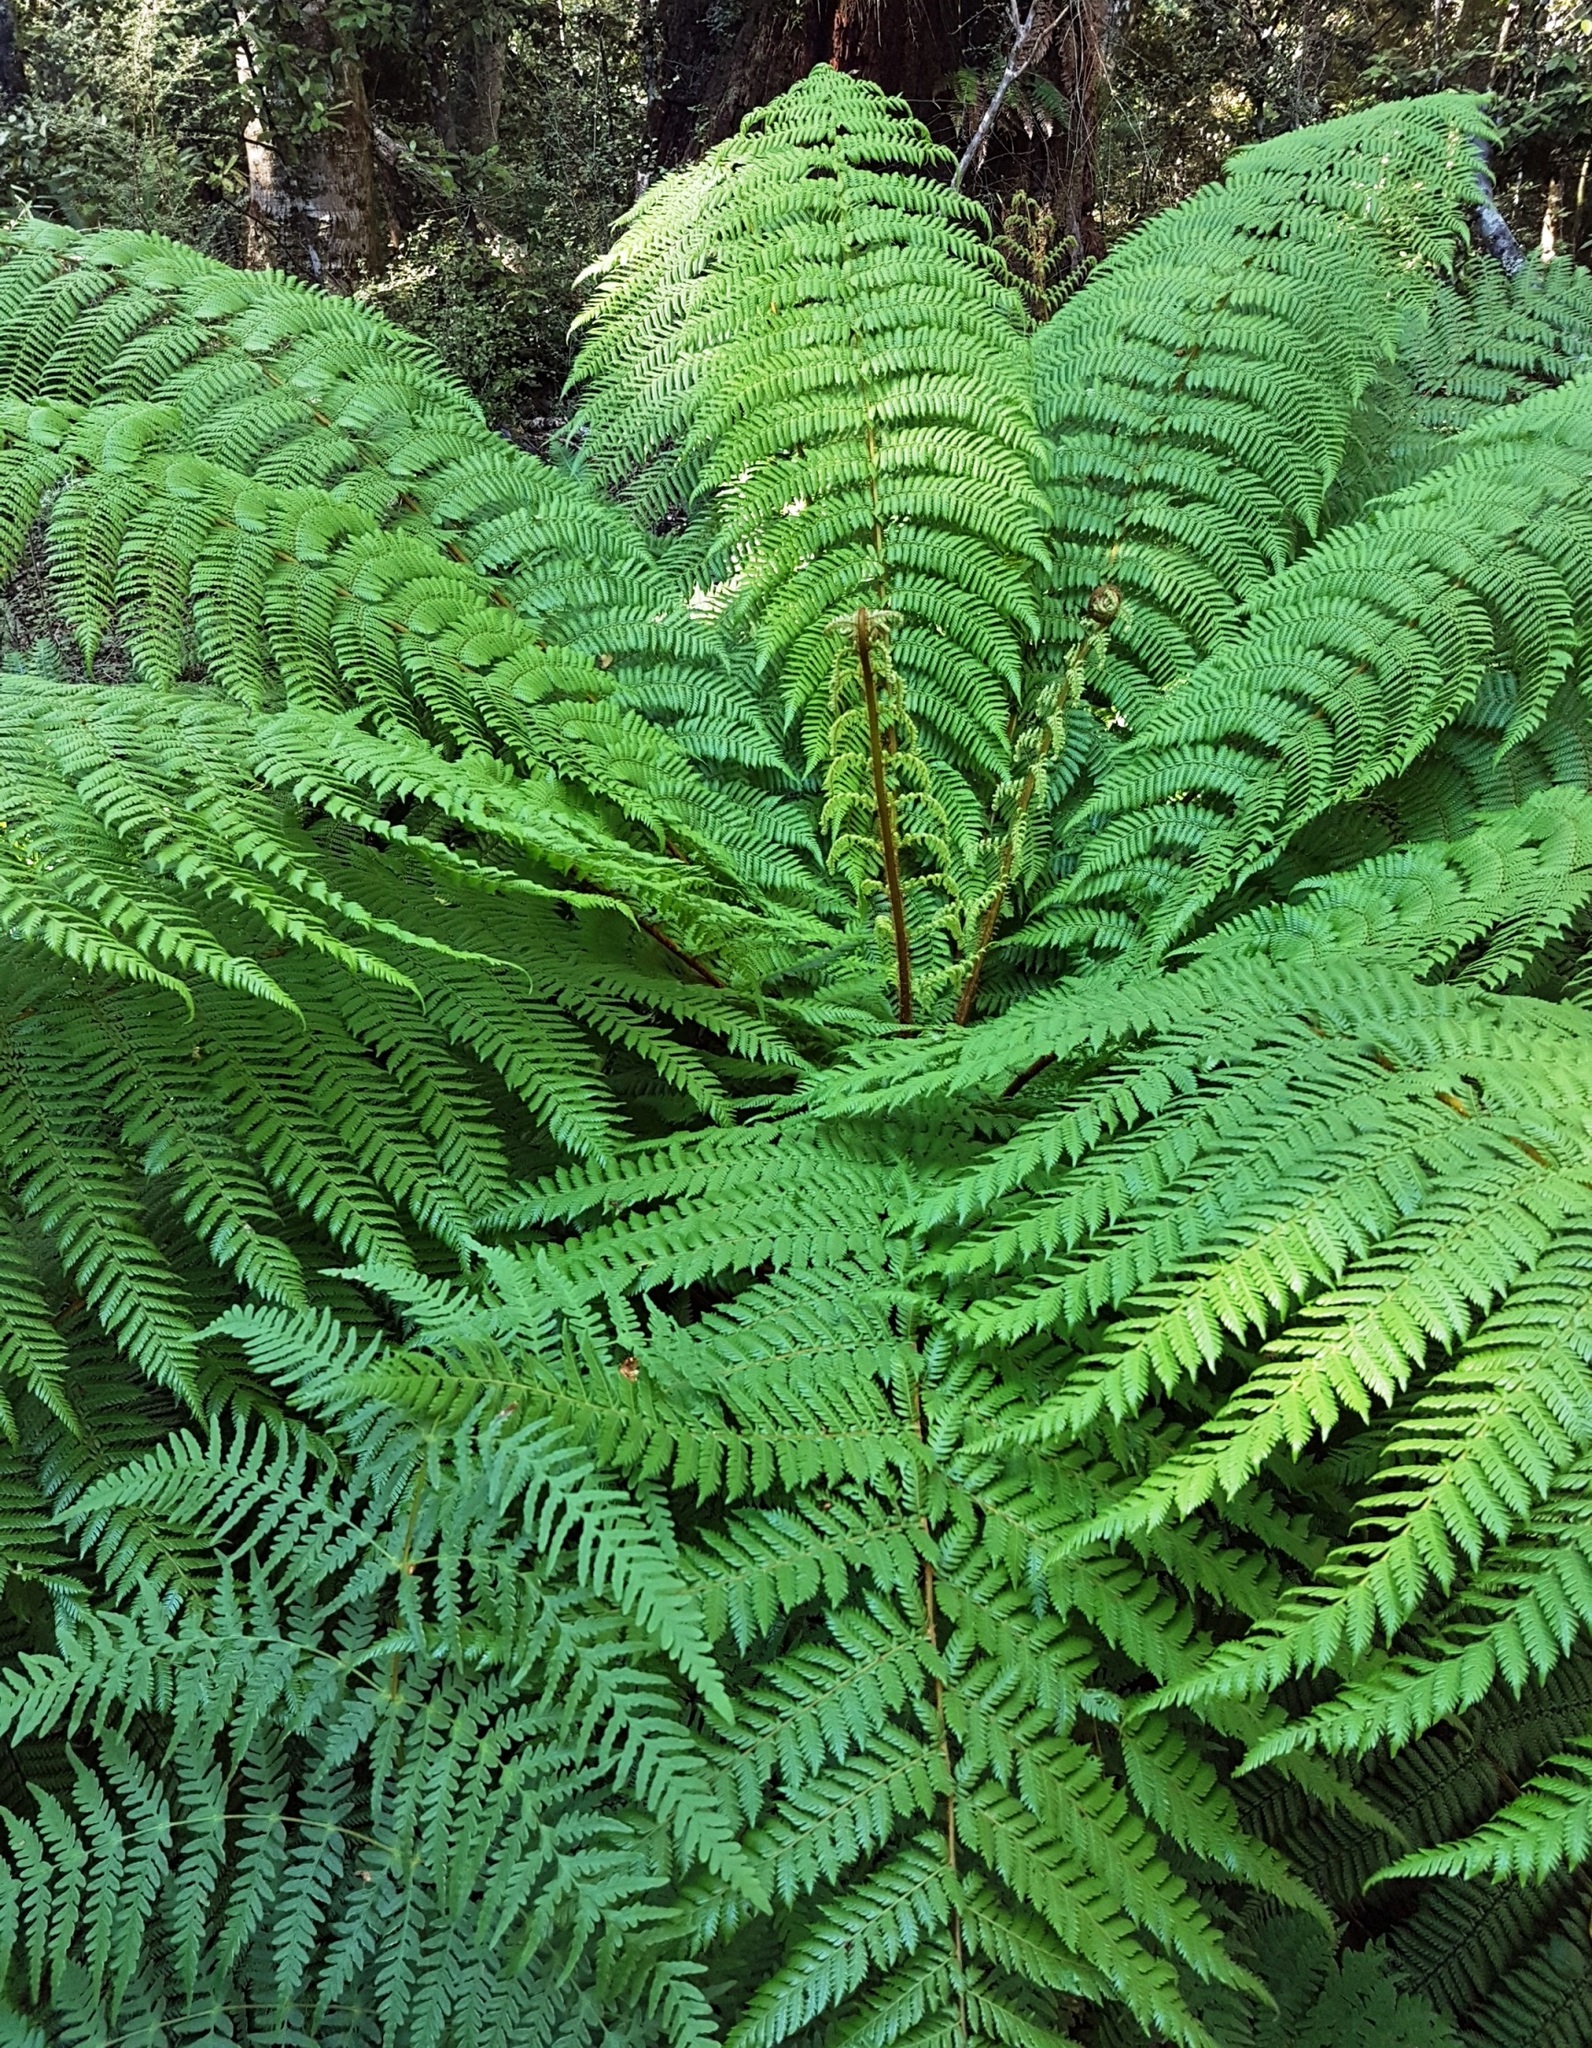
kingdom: Plantae
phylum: Tracheophyta
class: Polypodiopsida
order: Cyatheales
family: Cyatheaceae
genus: Alsophila
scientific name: Alsophila smithii
